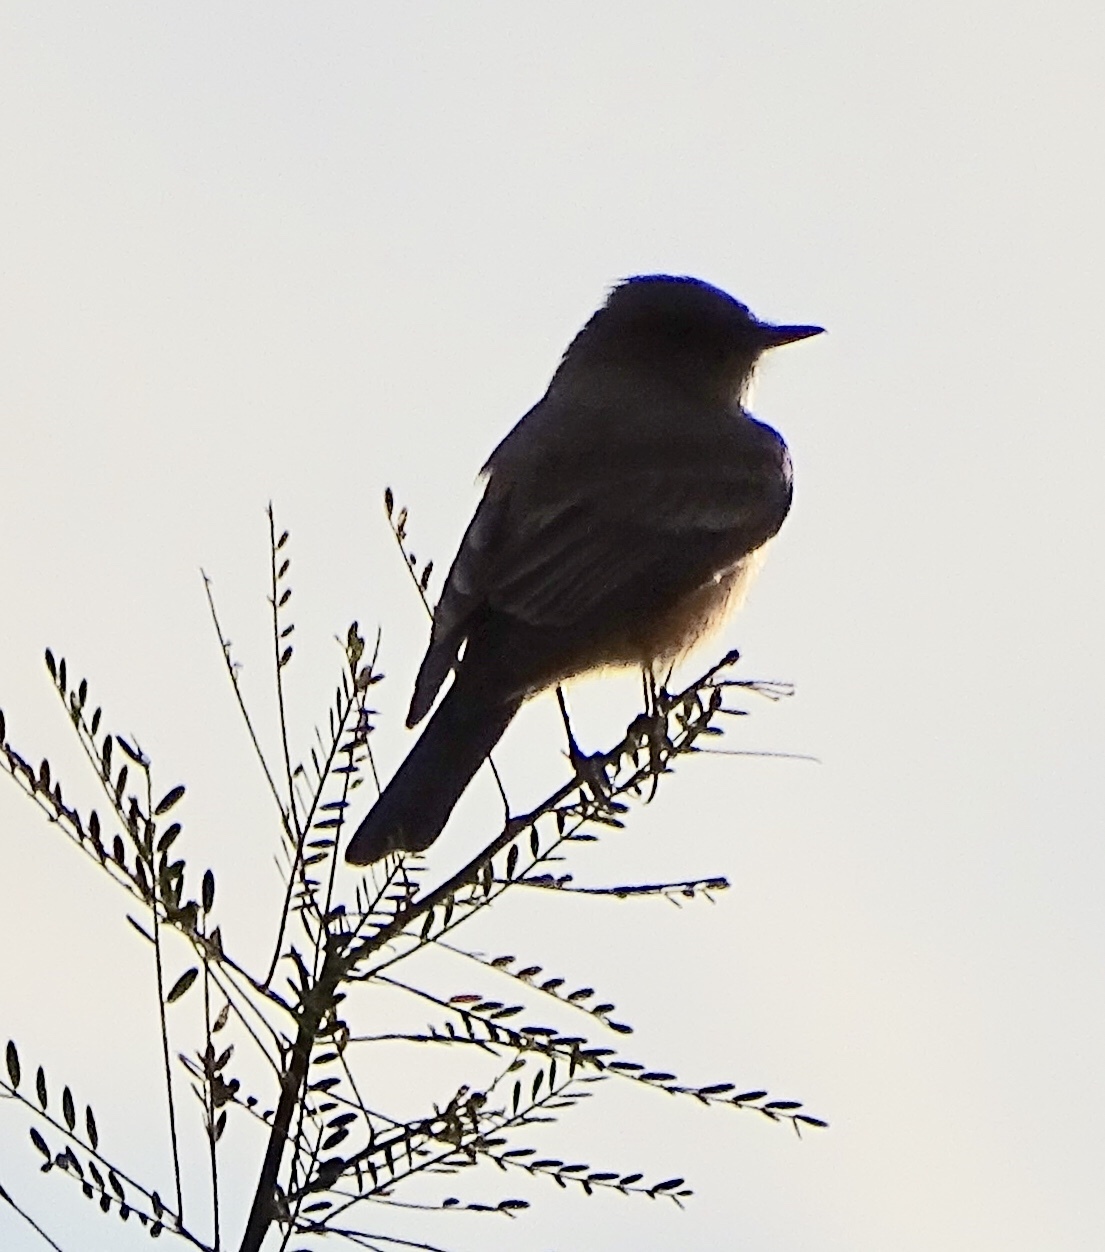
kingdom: Animalia
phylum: Chordata
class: Aves
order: Passeriformes
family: Tyrannidae
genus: Sayornis
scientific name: Sayornis saya
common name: Say's phoebe
